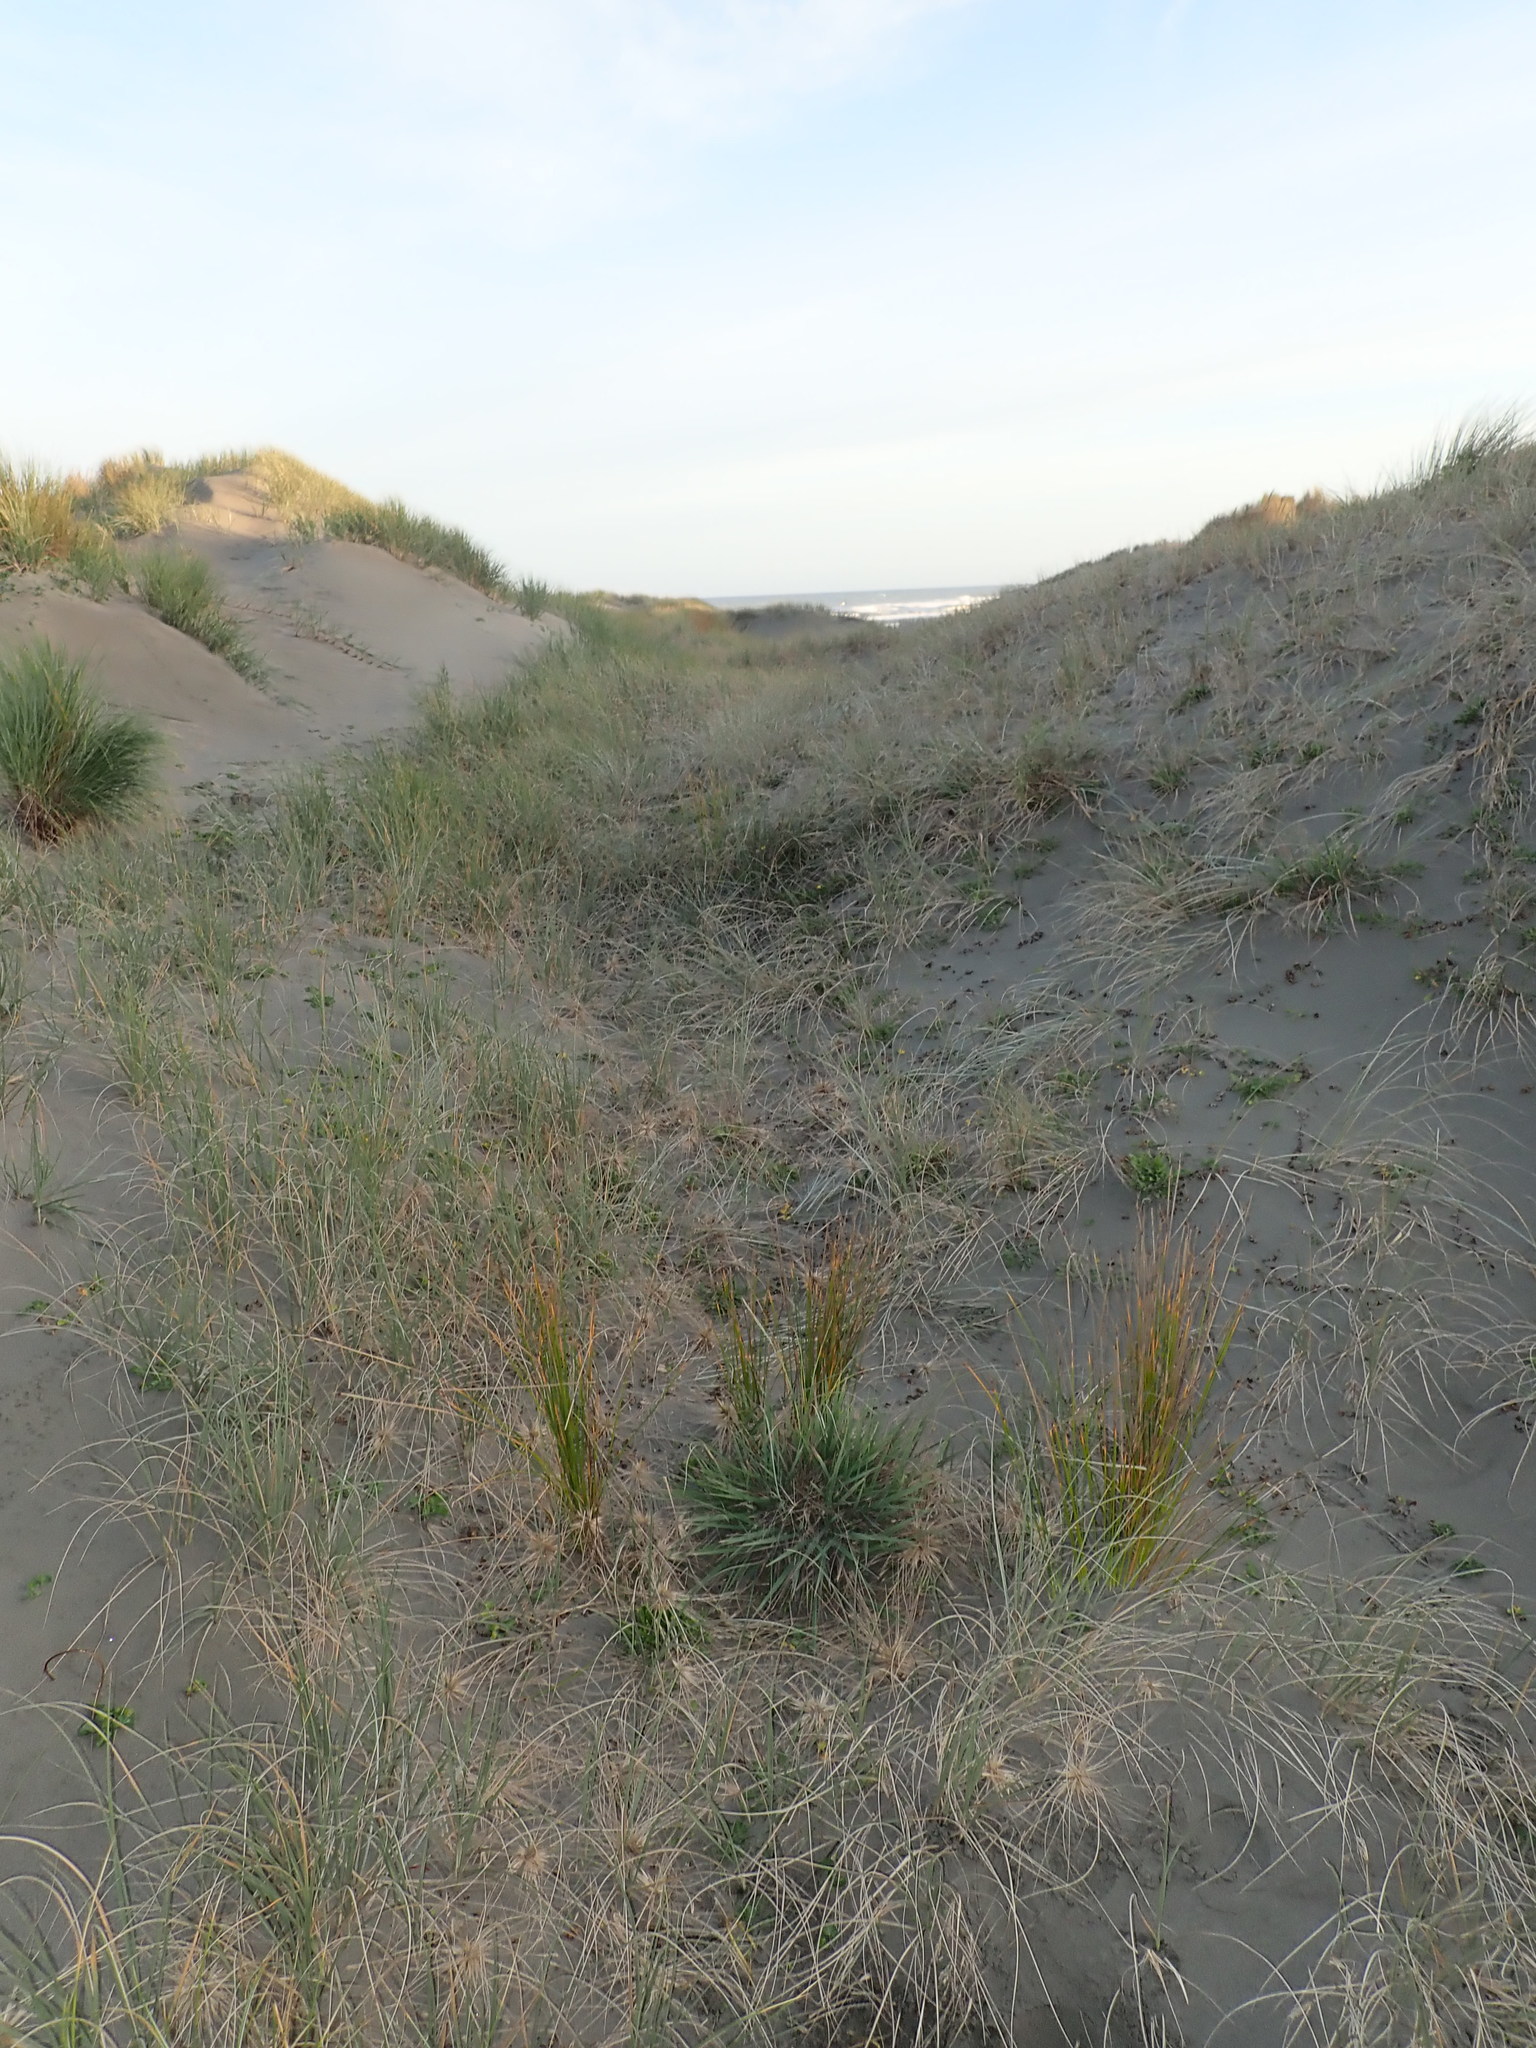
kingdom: Plantae
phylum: Tracheophyta
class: Liliopsida
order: Poales
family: Cyperaceae
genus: Ficinia
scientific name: Ficinia nodosa
